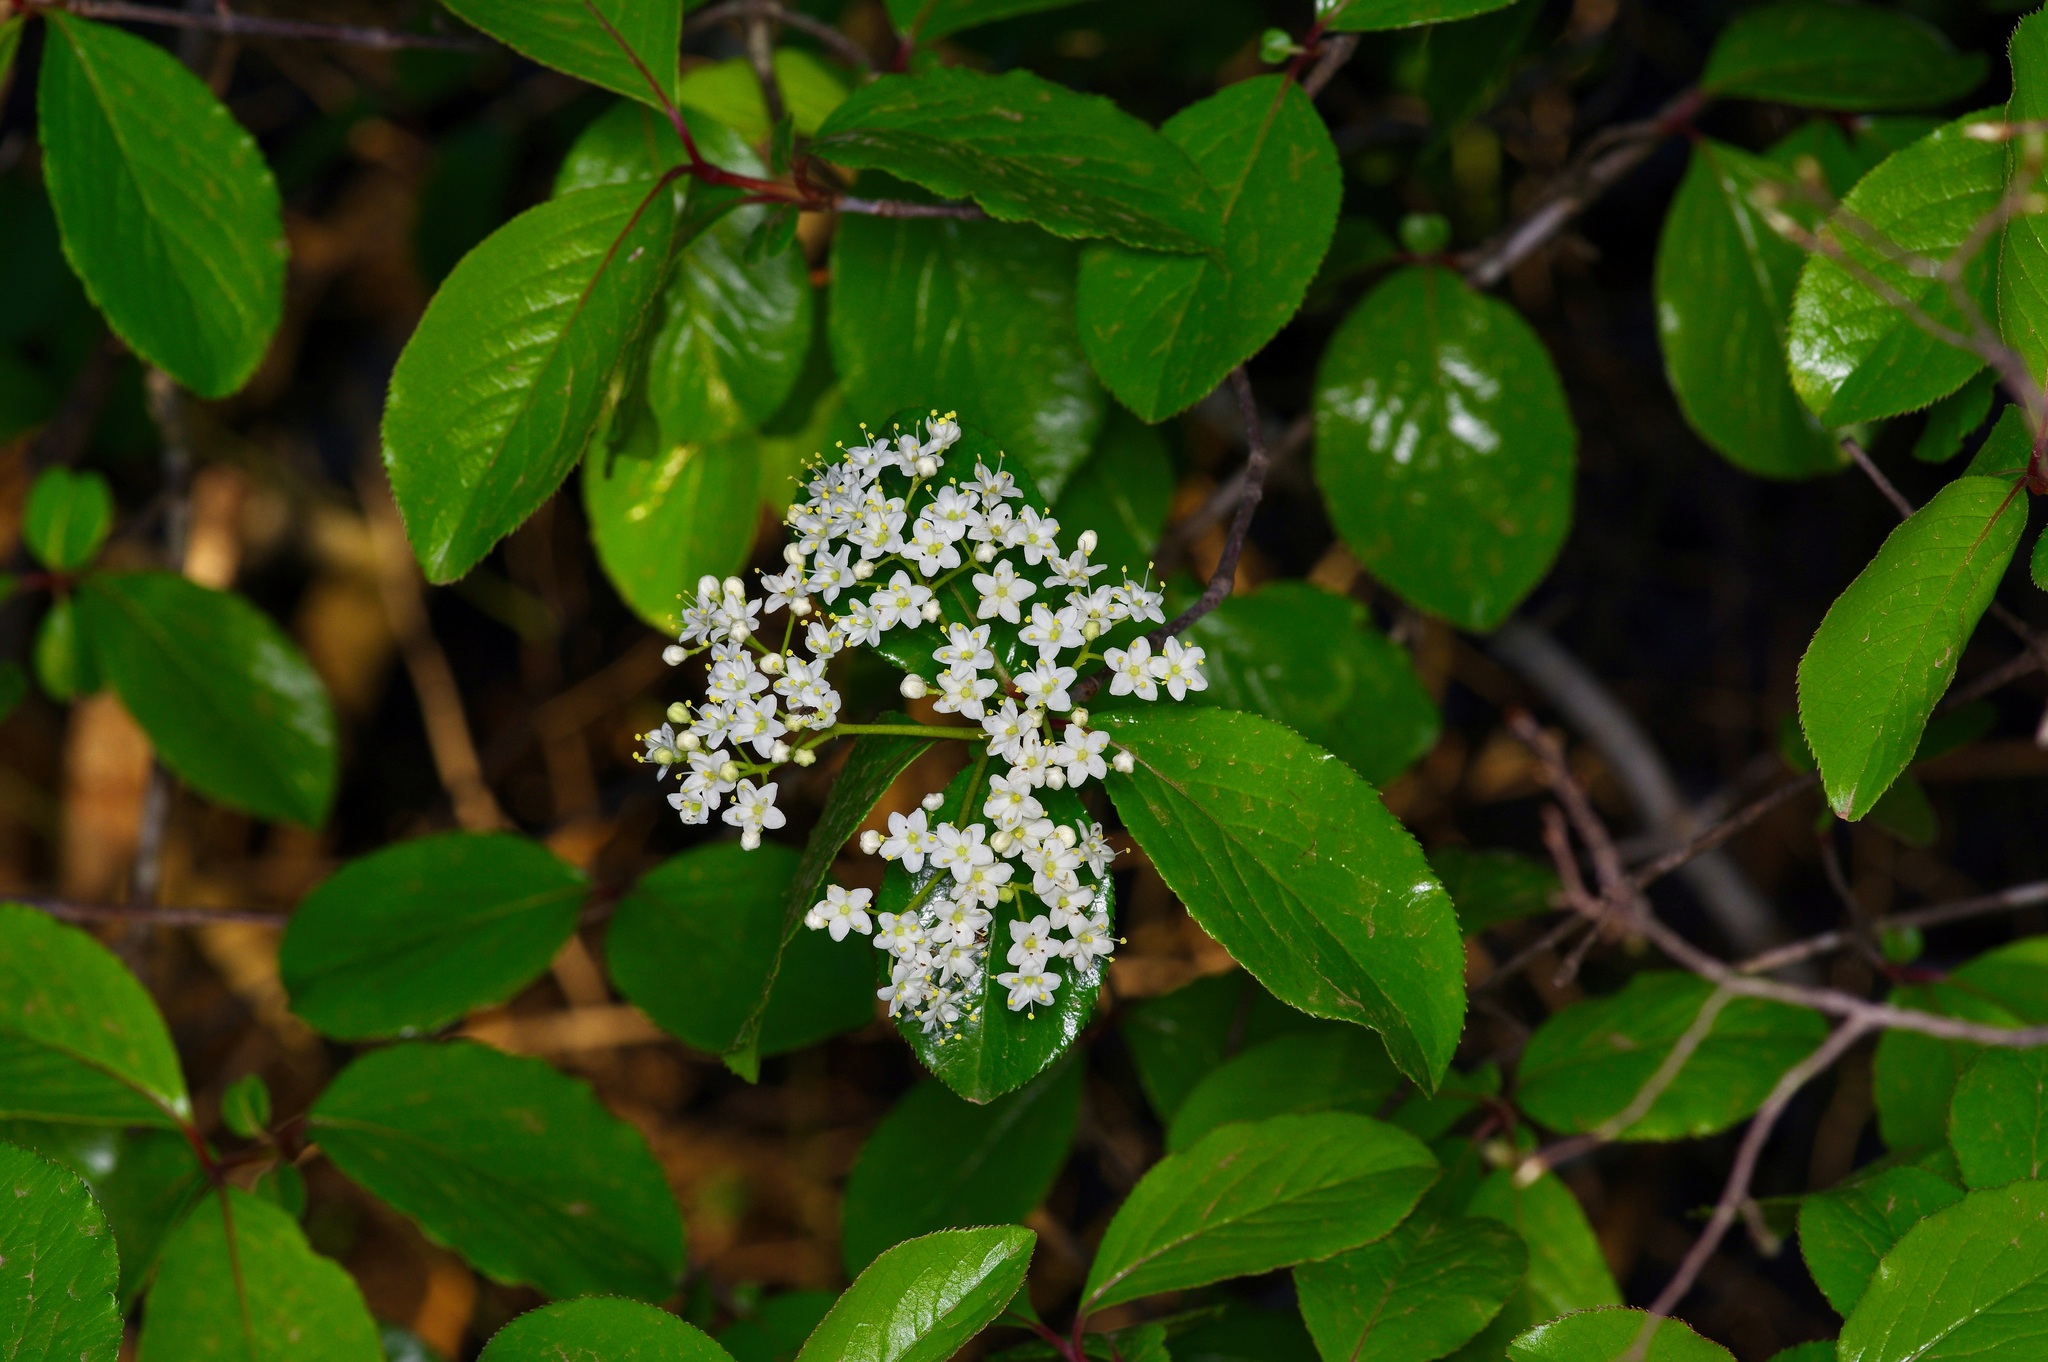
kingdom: Plantae
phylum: Tracheophyta
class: Magnoliopsida
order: Dipsacales
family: Viburnaceae
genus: Viburnum
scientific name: Viburnum rufidulum
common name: Blue haw
